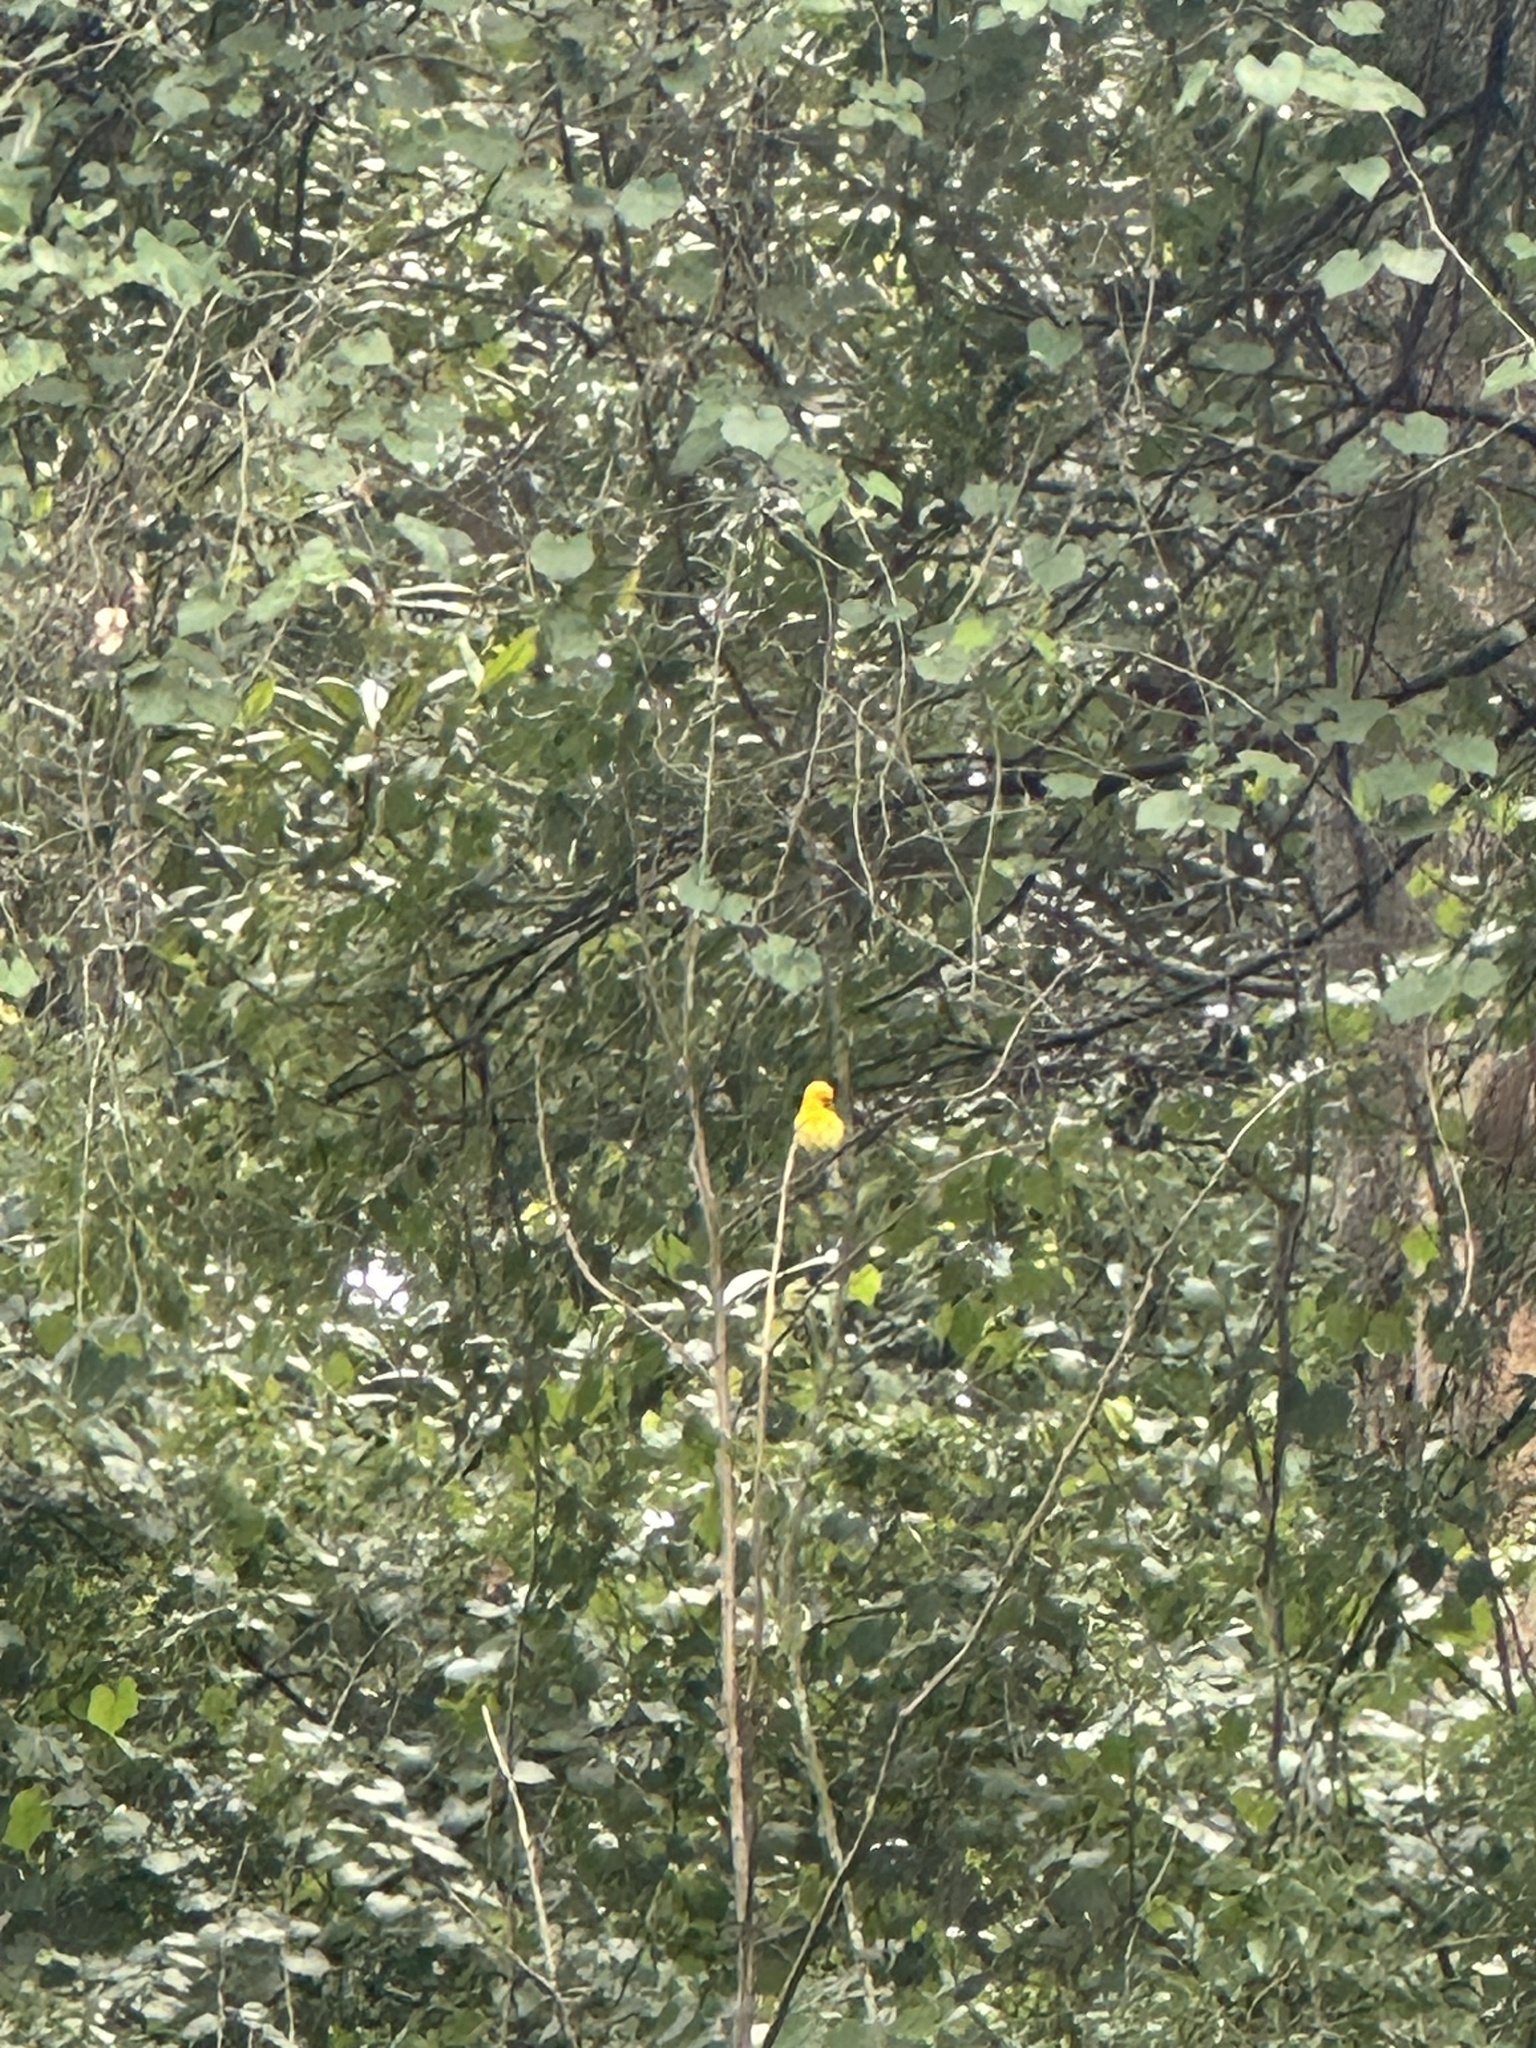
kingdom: Animalia
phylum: Chordata
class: Aves
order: Passeriformes
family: Parulidae
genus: Protonotaria
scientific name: Protonotaria citrea
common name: Prothonotary warbler
